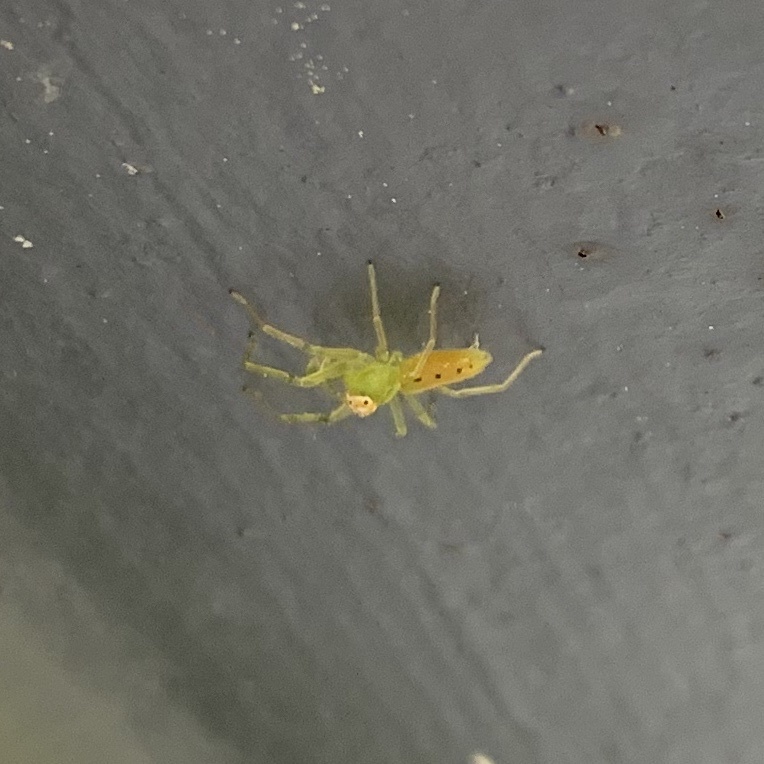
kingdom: Animalia
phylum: Arthropoda
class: Arachnida
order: Araneae
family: Salticidae
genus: Lyssomanes
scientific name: Lyssomanes viridis
